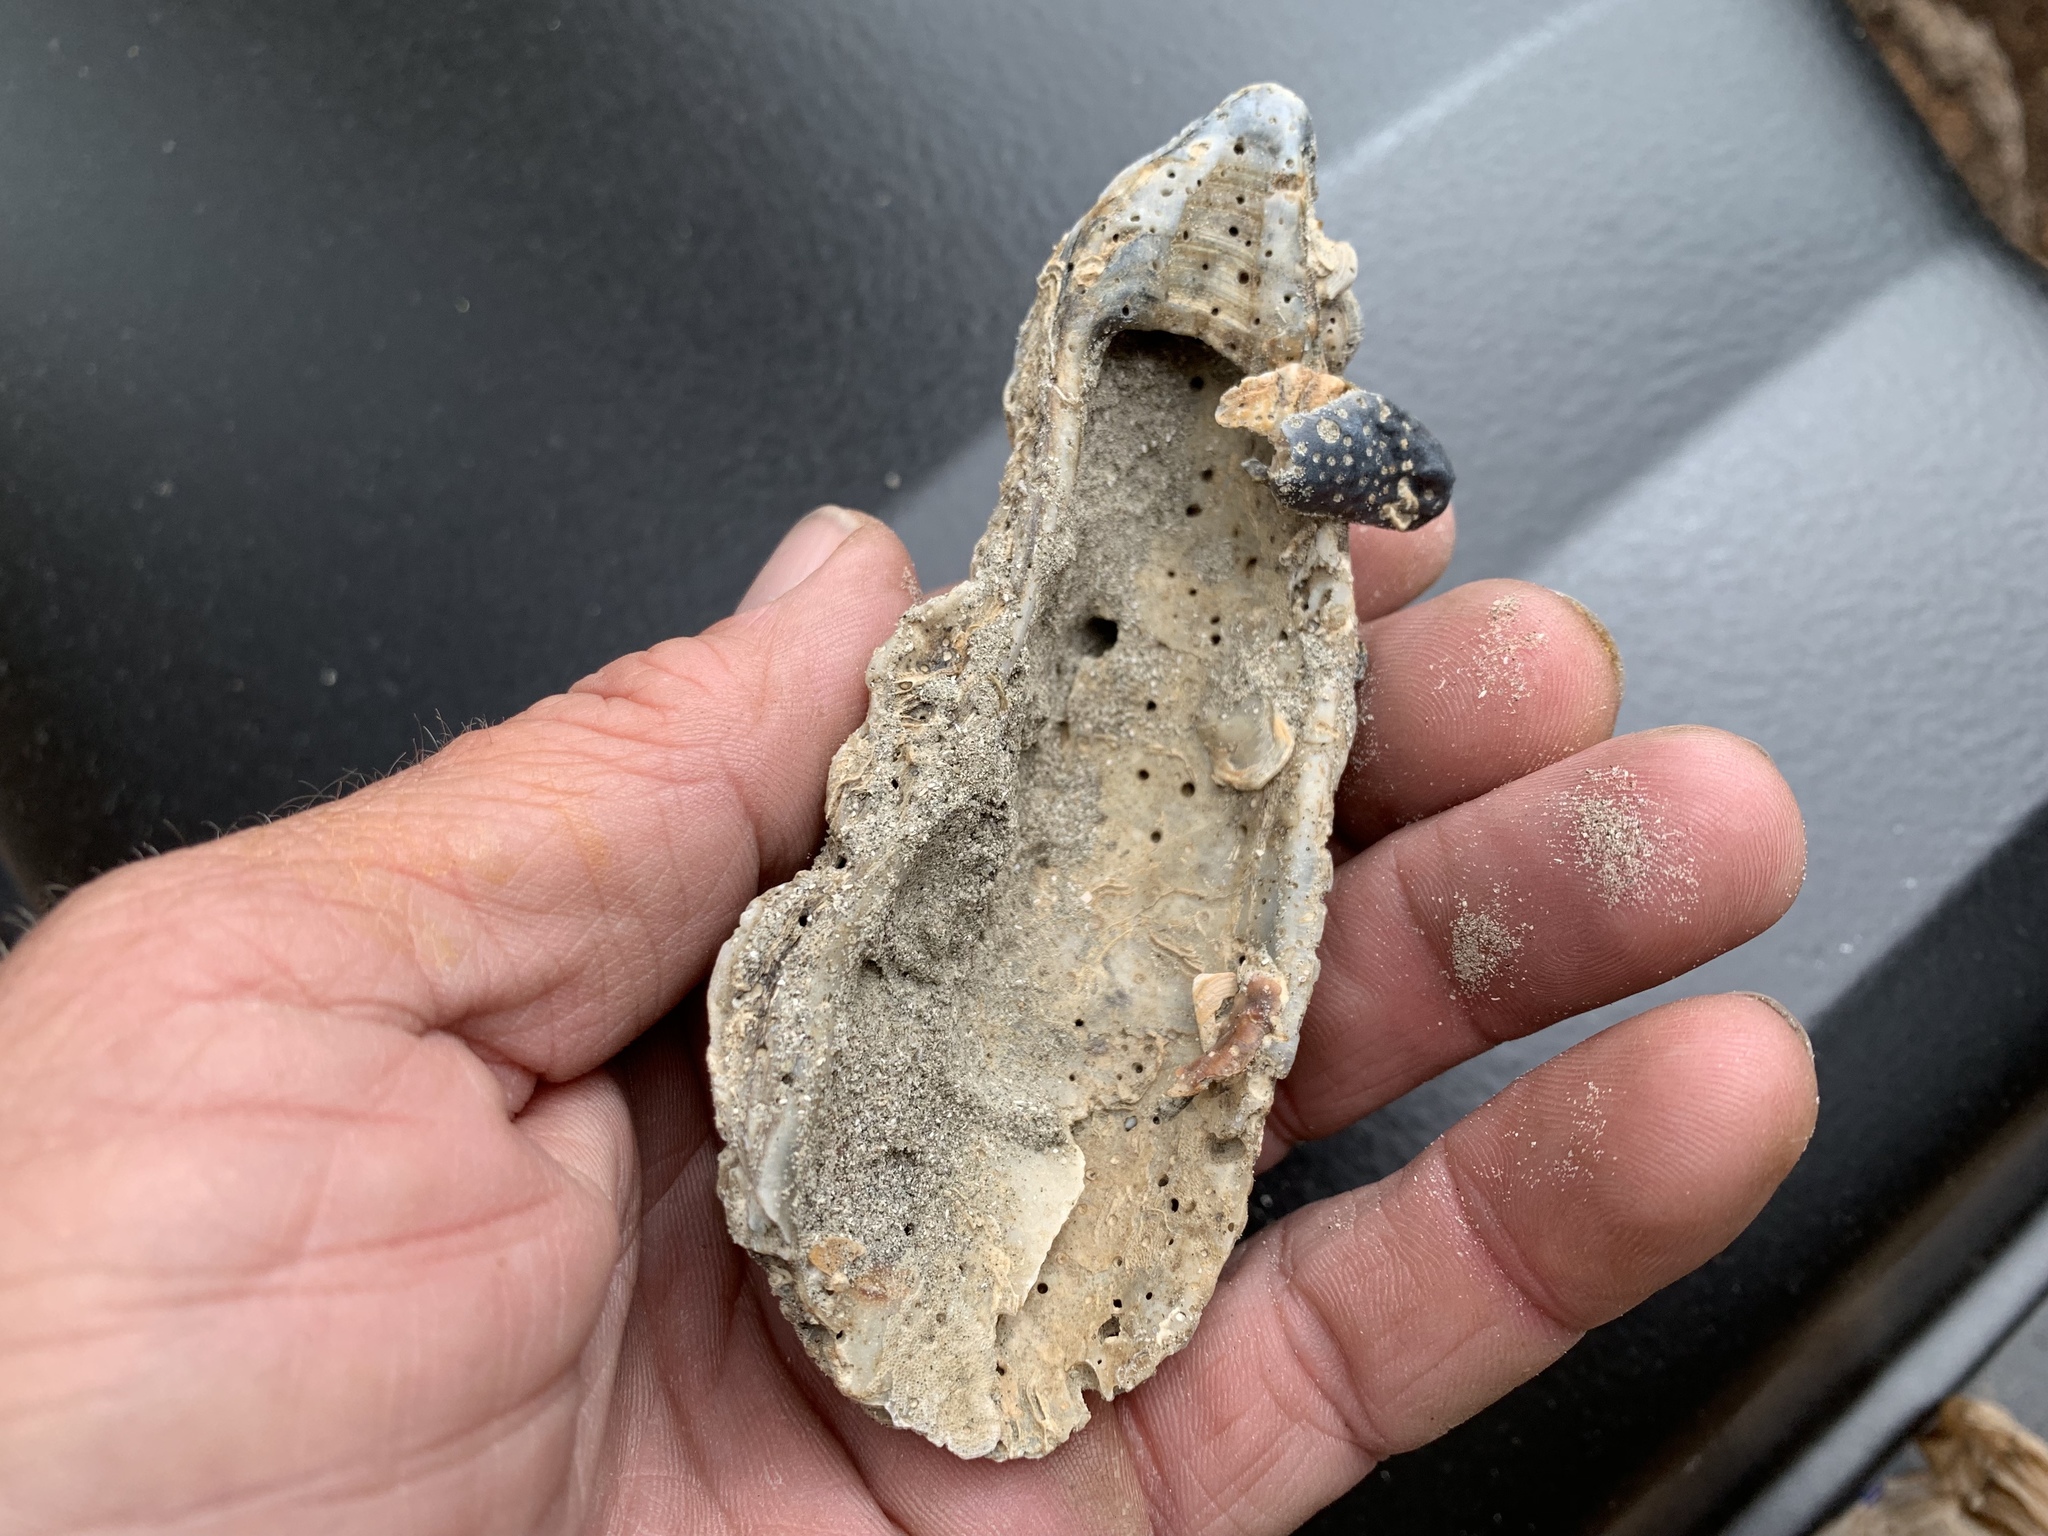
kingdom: Animalia
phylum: Mollusca
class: Bivalvia
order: Ostreida
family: Ostreidae
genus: Crassostrea
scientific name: Crassostrea virginica
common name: American oyster
